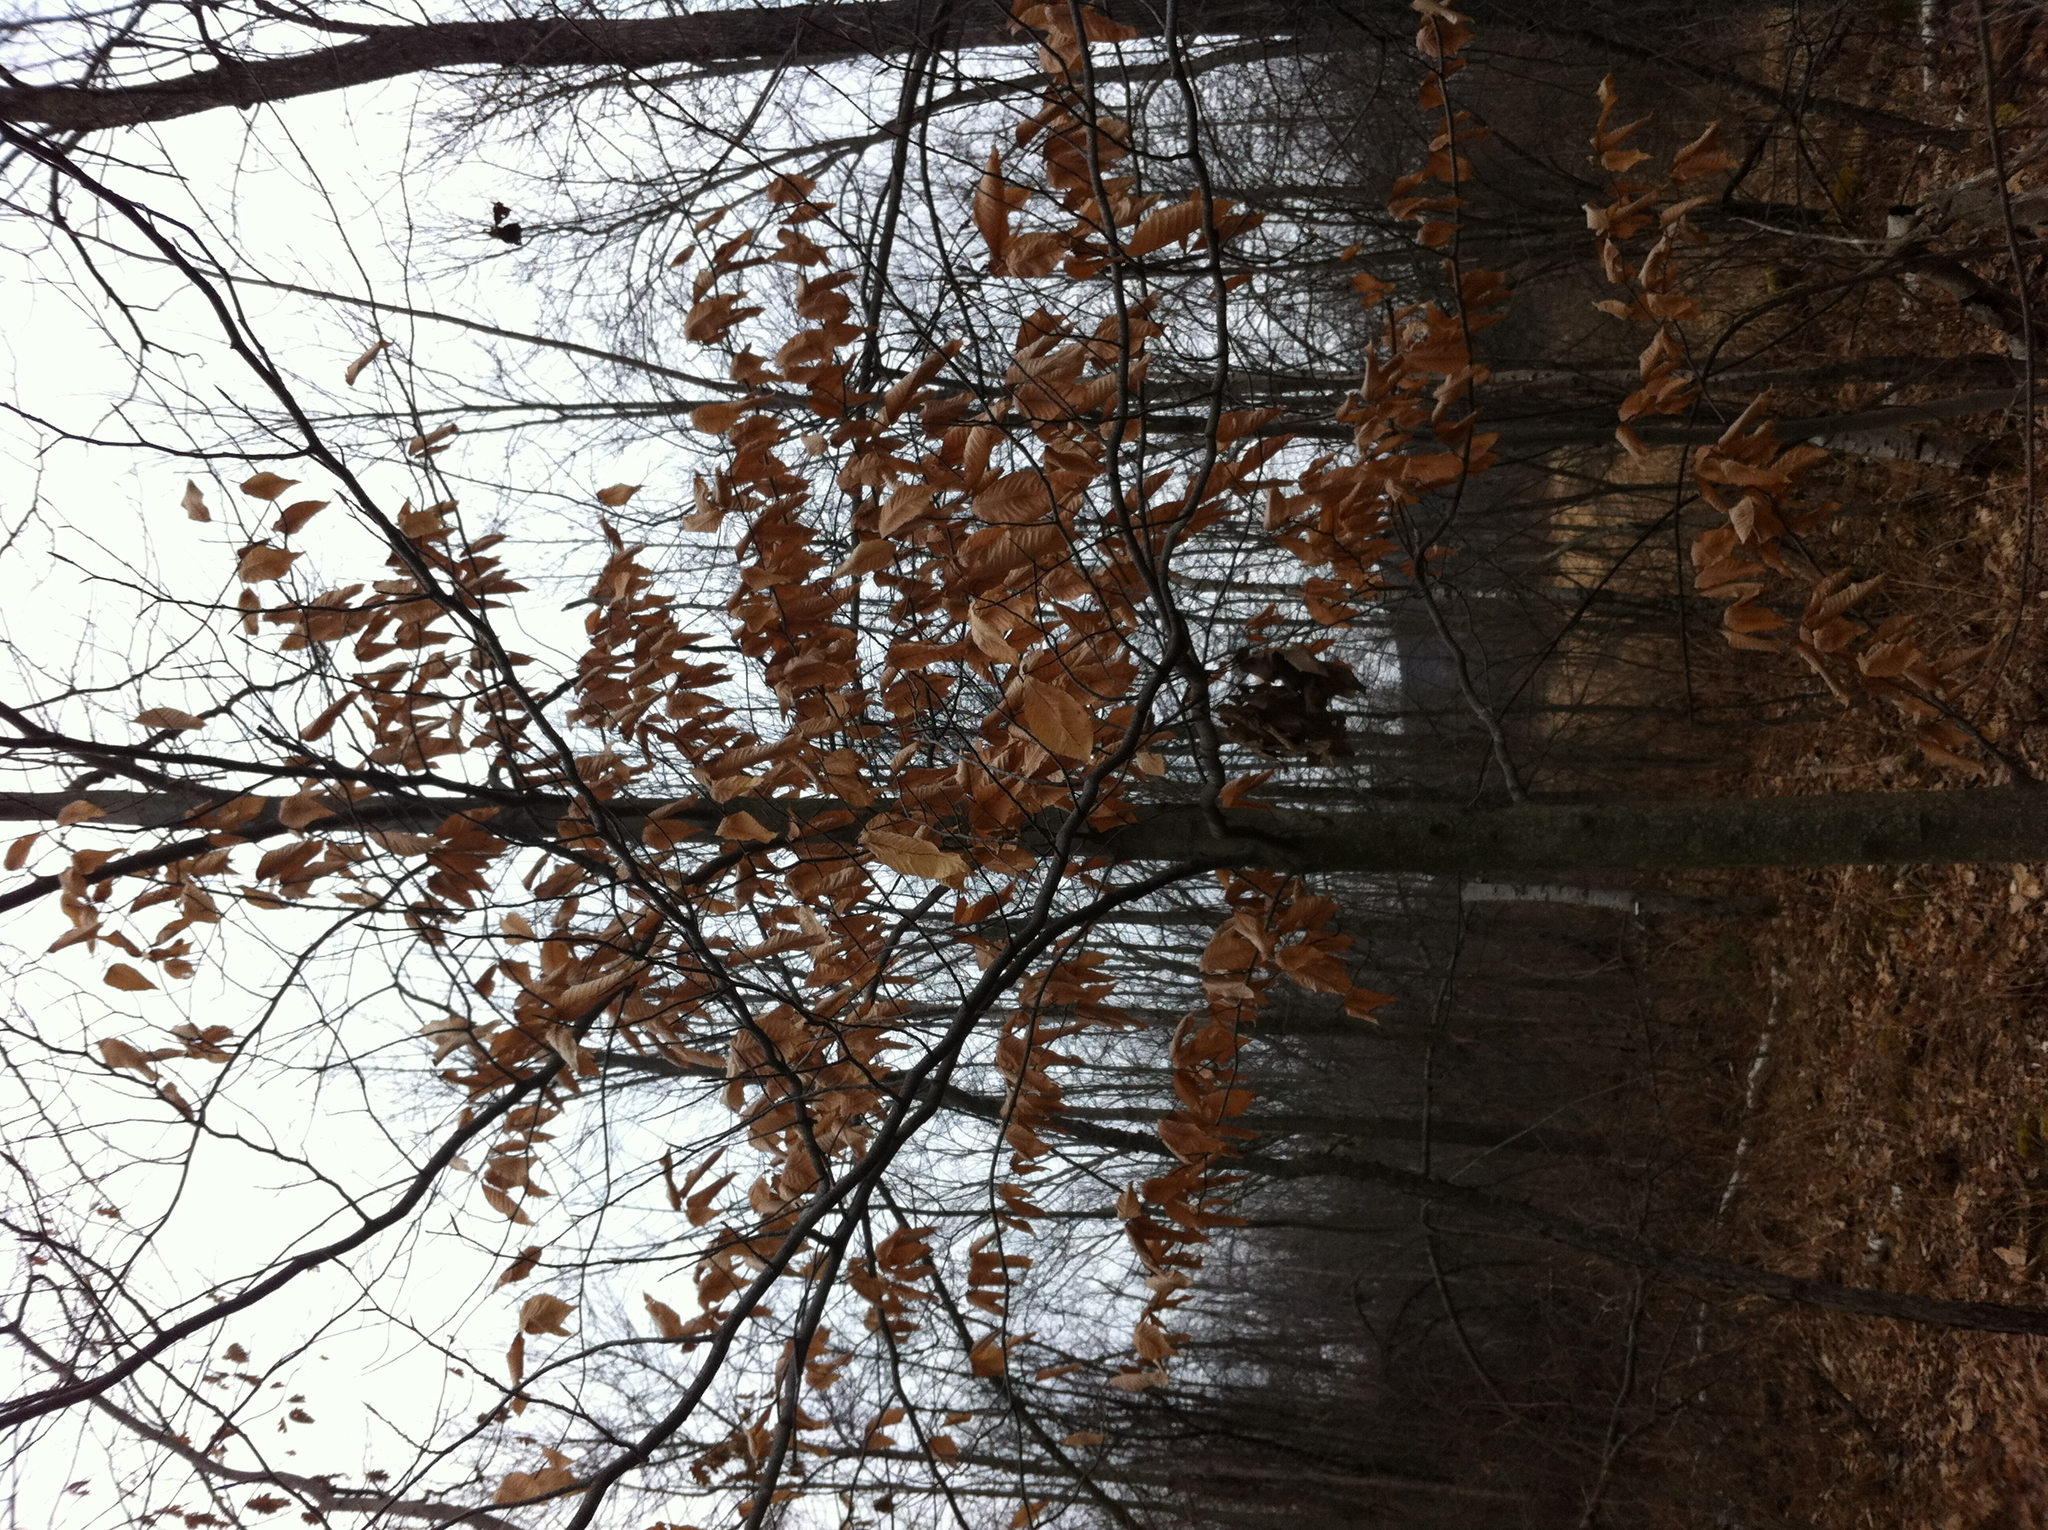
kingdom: Plantae
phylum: Tracheophyta
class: Magnoliopsida
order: Fagales
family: Fagaceae
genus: Fagus
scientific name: Fagus grandifolia
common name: American beech
